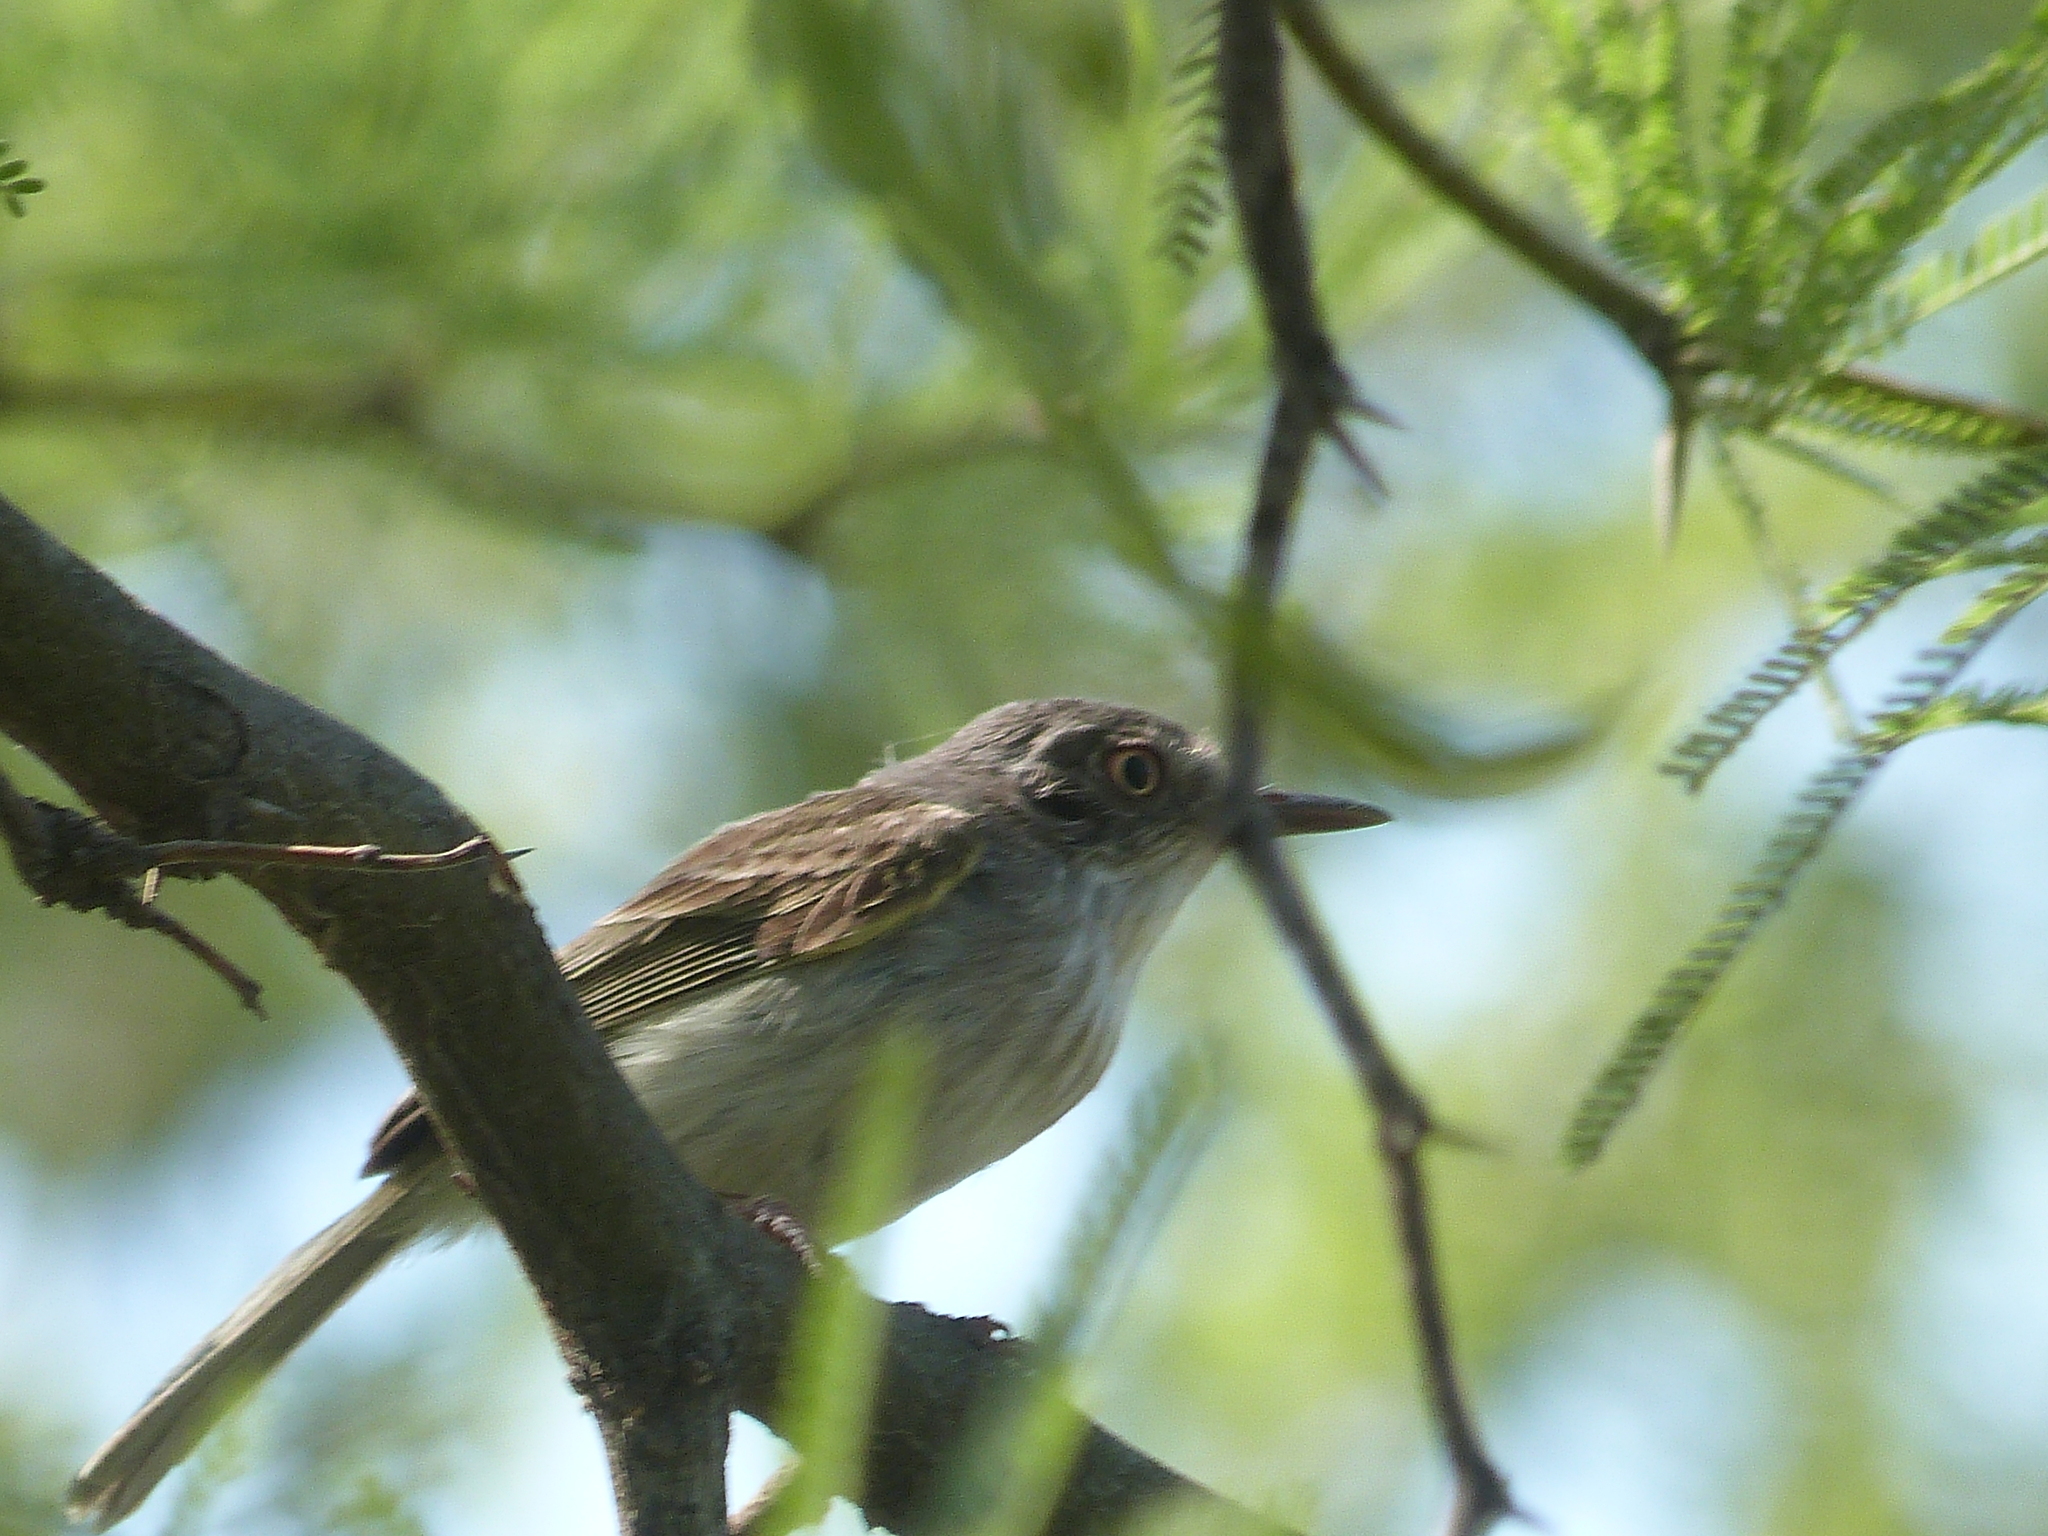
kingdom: Animalia
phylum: Chordata
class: Aves
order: Passeriformes
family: Tyrannidae
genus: Hemitriccus
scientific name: Hemitriccus margaritaceiventer
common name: Pearly-vented tody-tyrant
